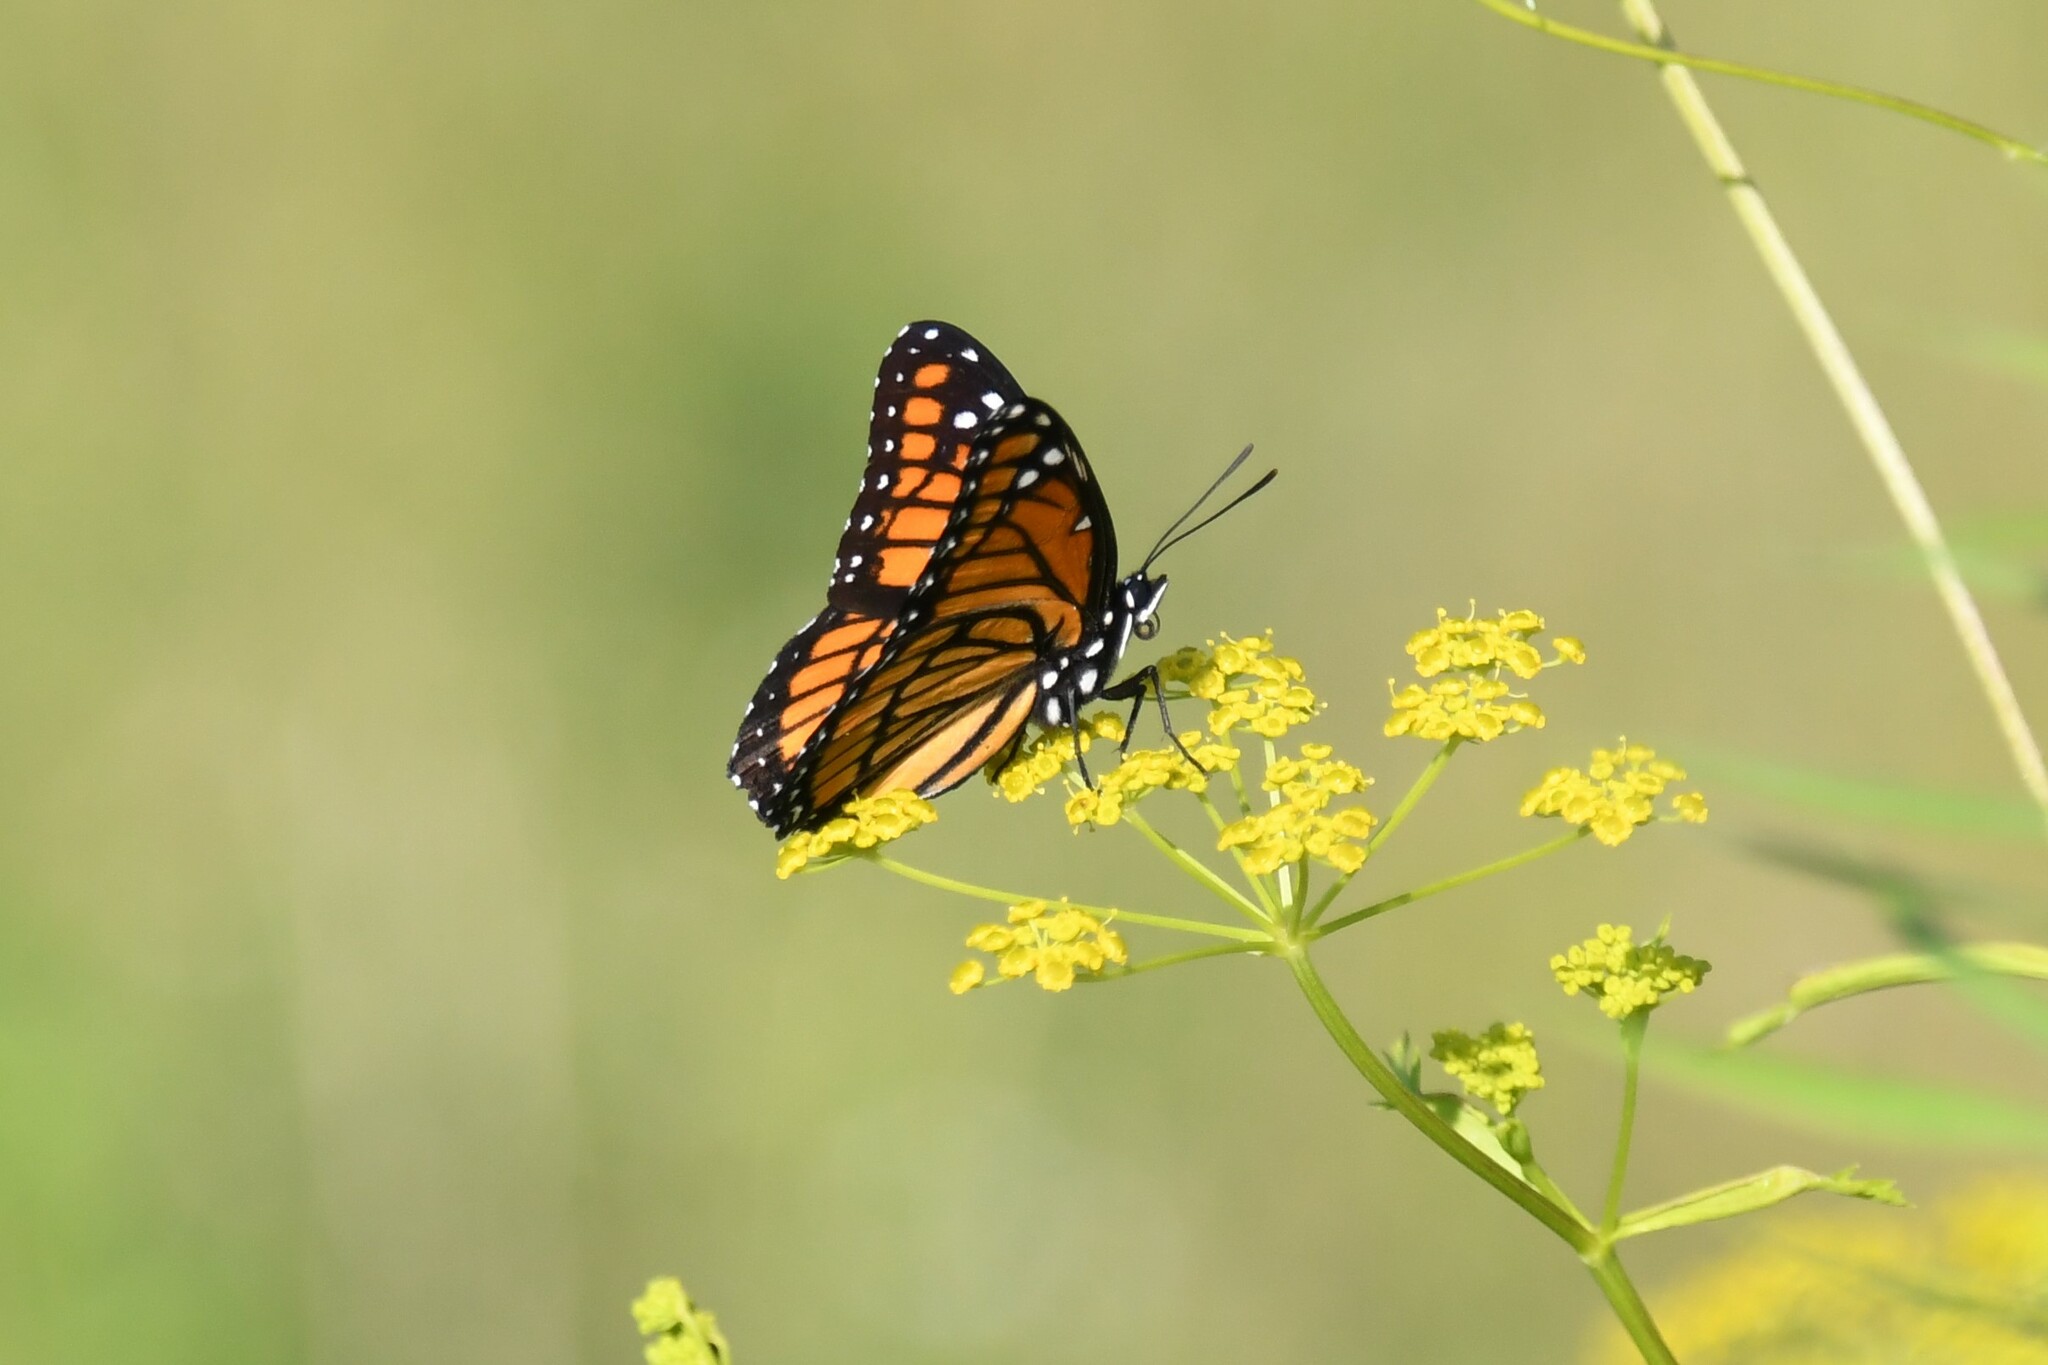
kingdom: Animalia
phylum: Arthropoda
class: Insecta
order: Lepidoptera
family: Nymphalidae
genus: Limenitis
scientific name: Limenitis archippus
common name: Viceroy
